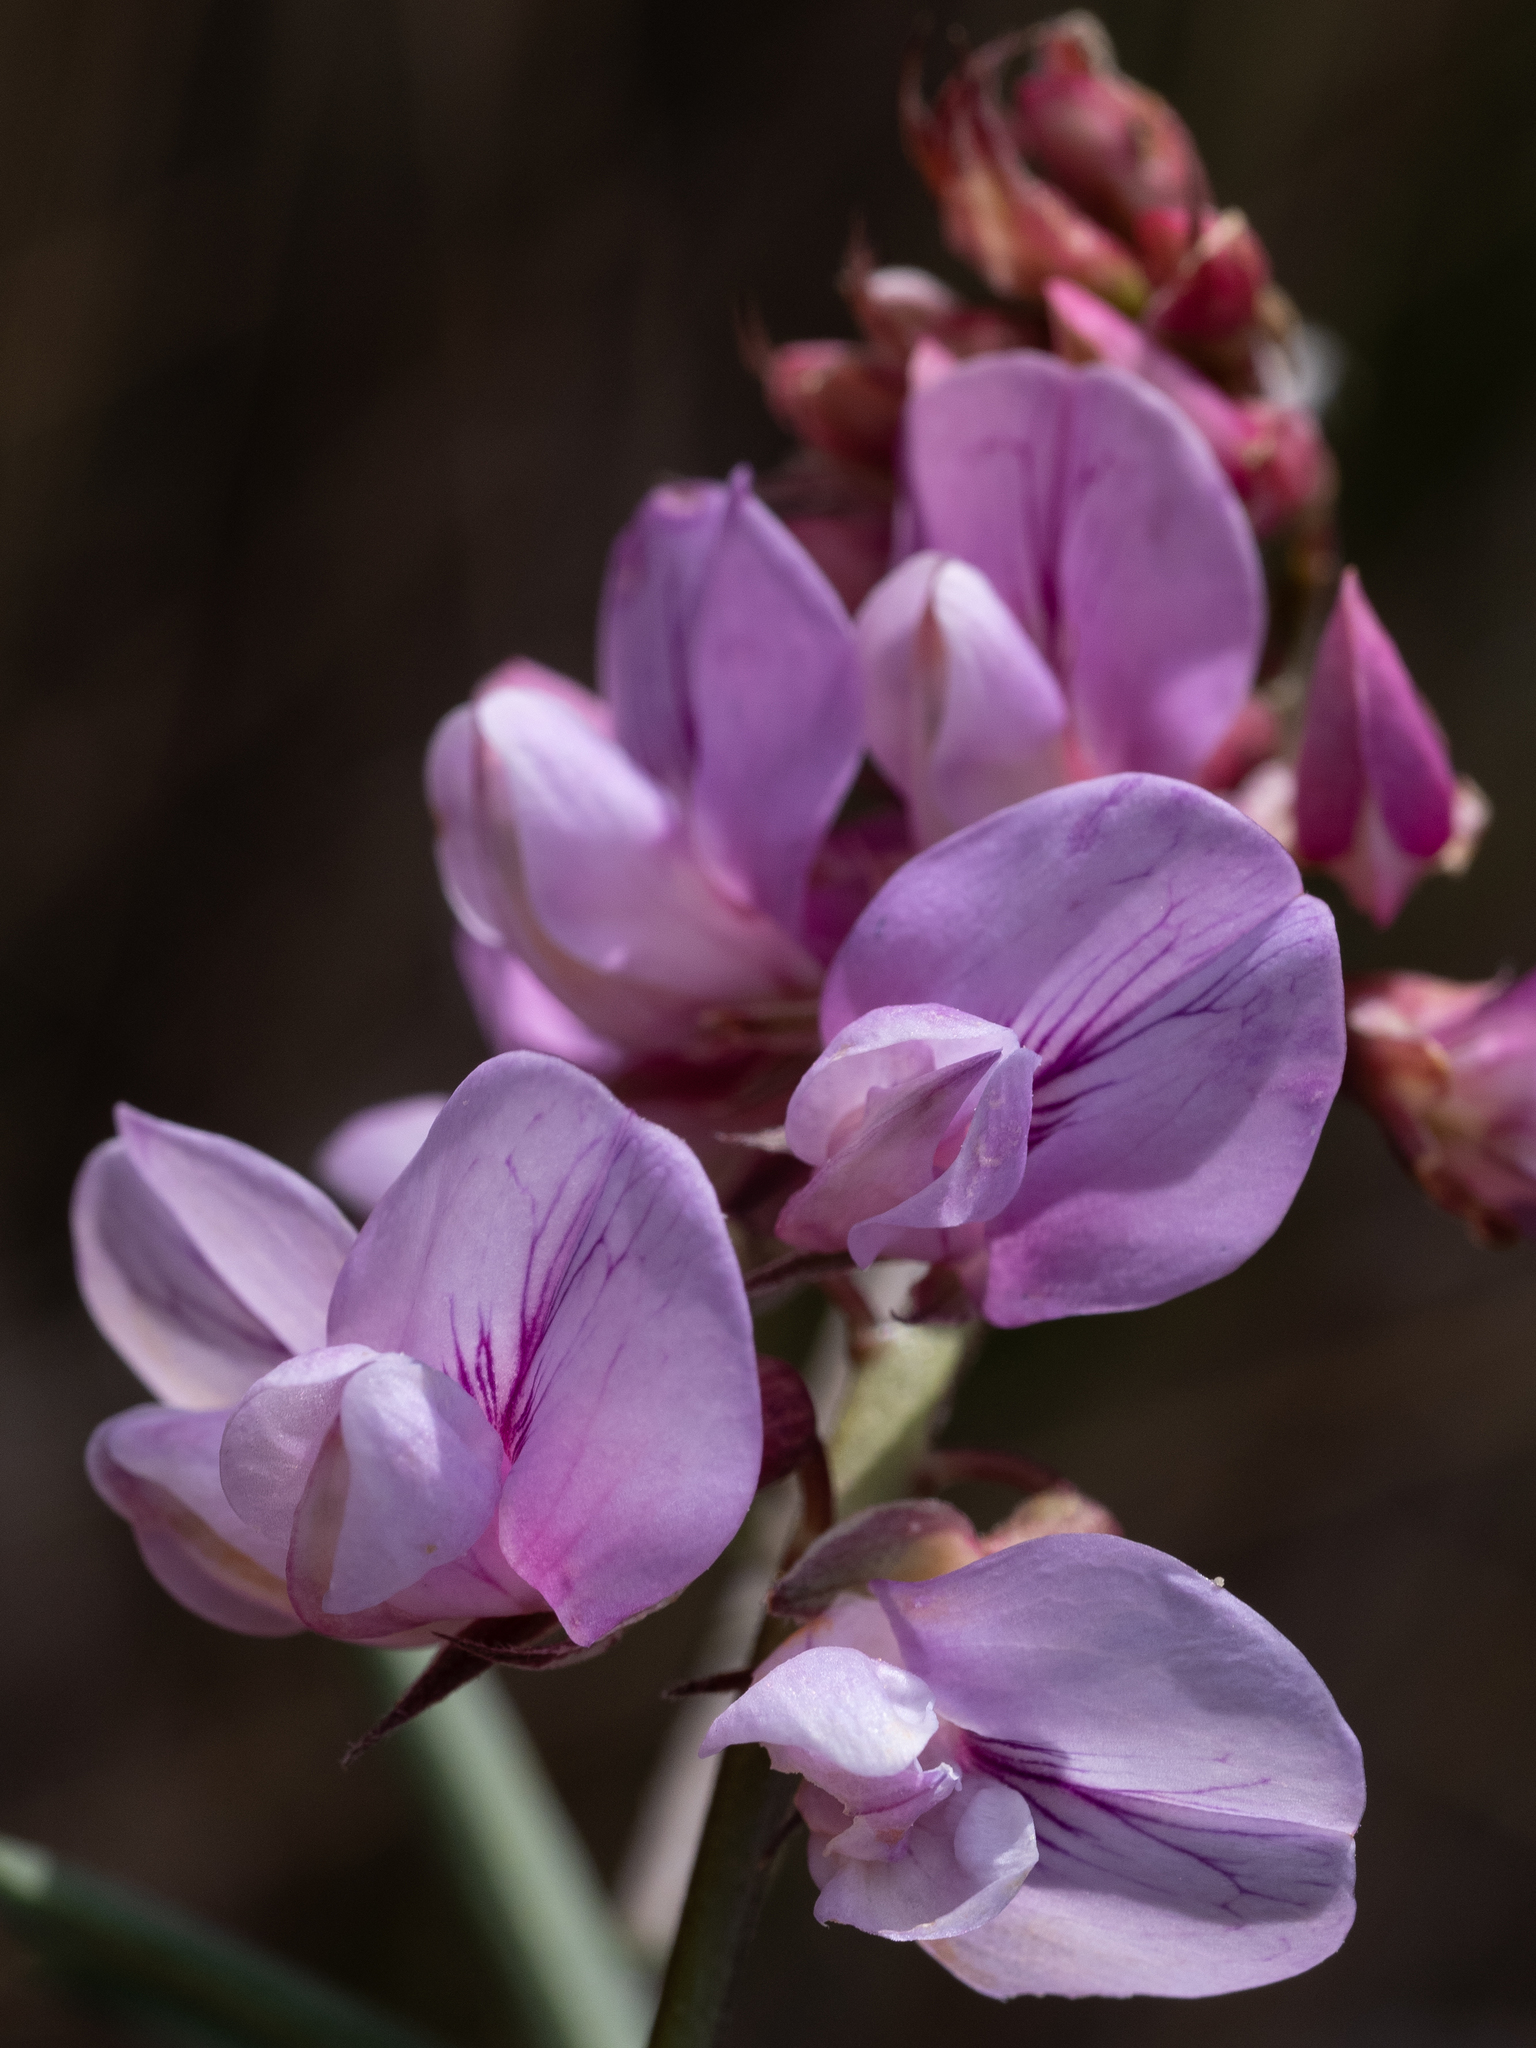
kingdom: Plantae
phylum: Tracheophyta
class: Magnoliopsida
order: Fabales
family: Fabaceae
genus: Lathyrus
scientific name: Lathyrus vestitus
